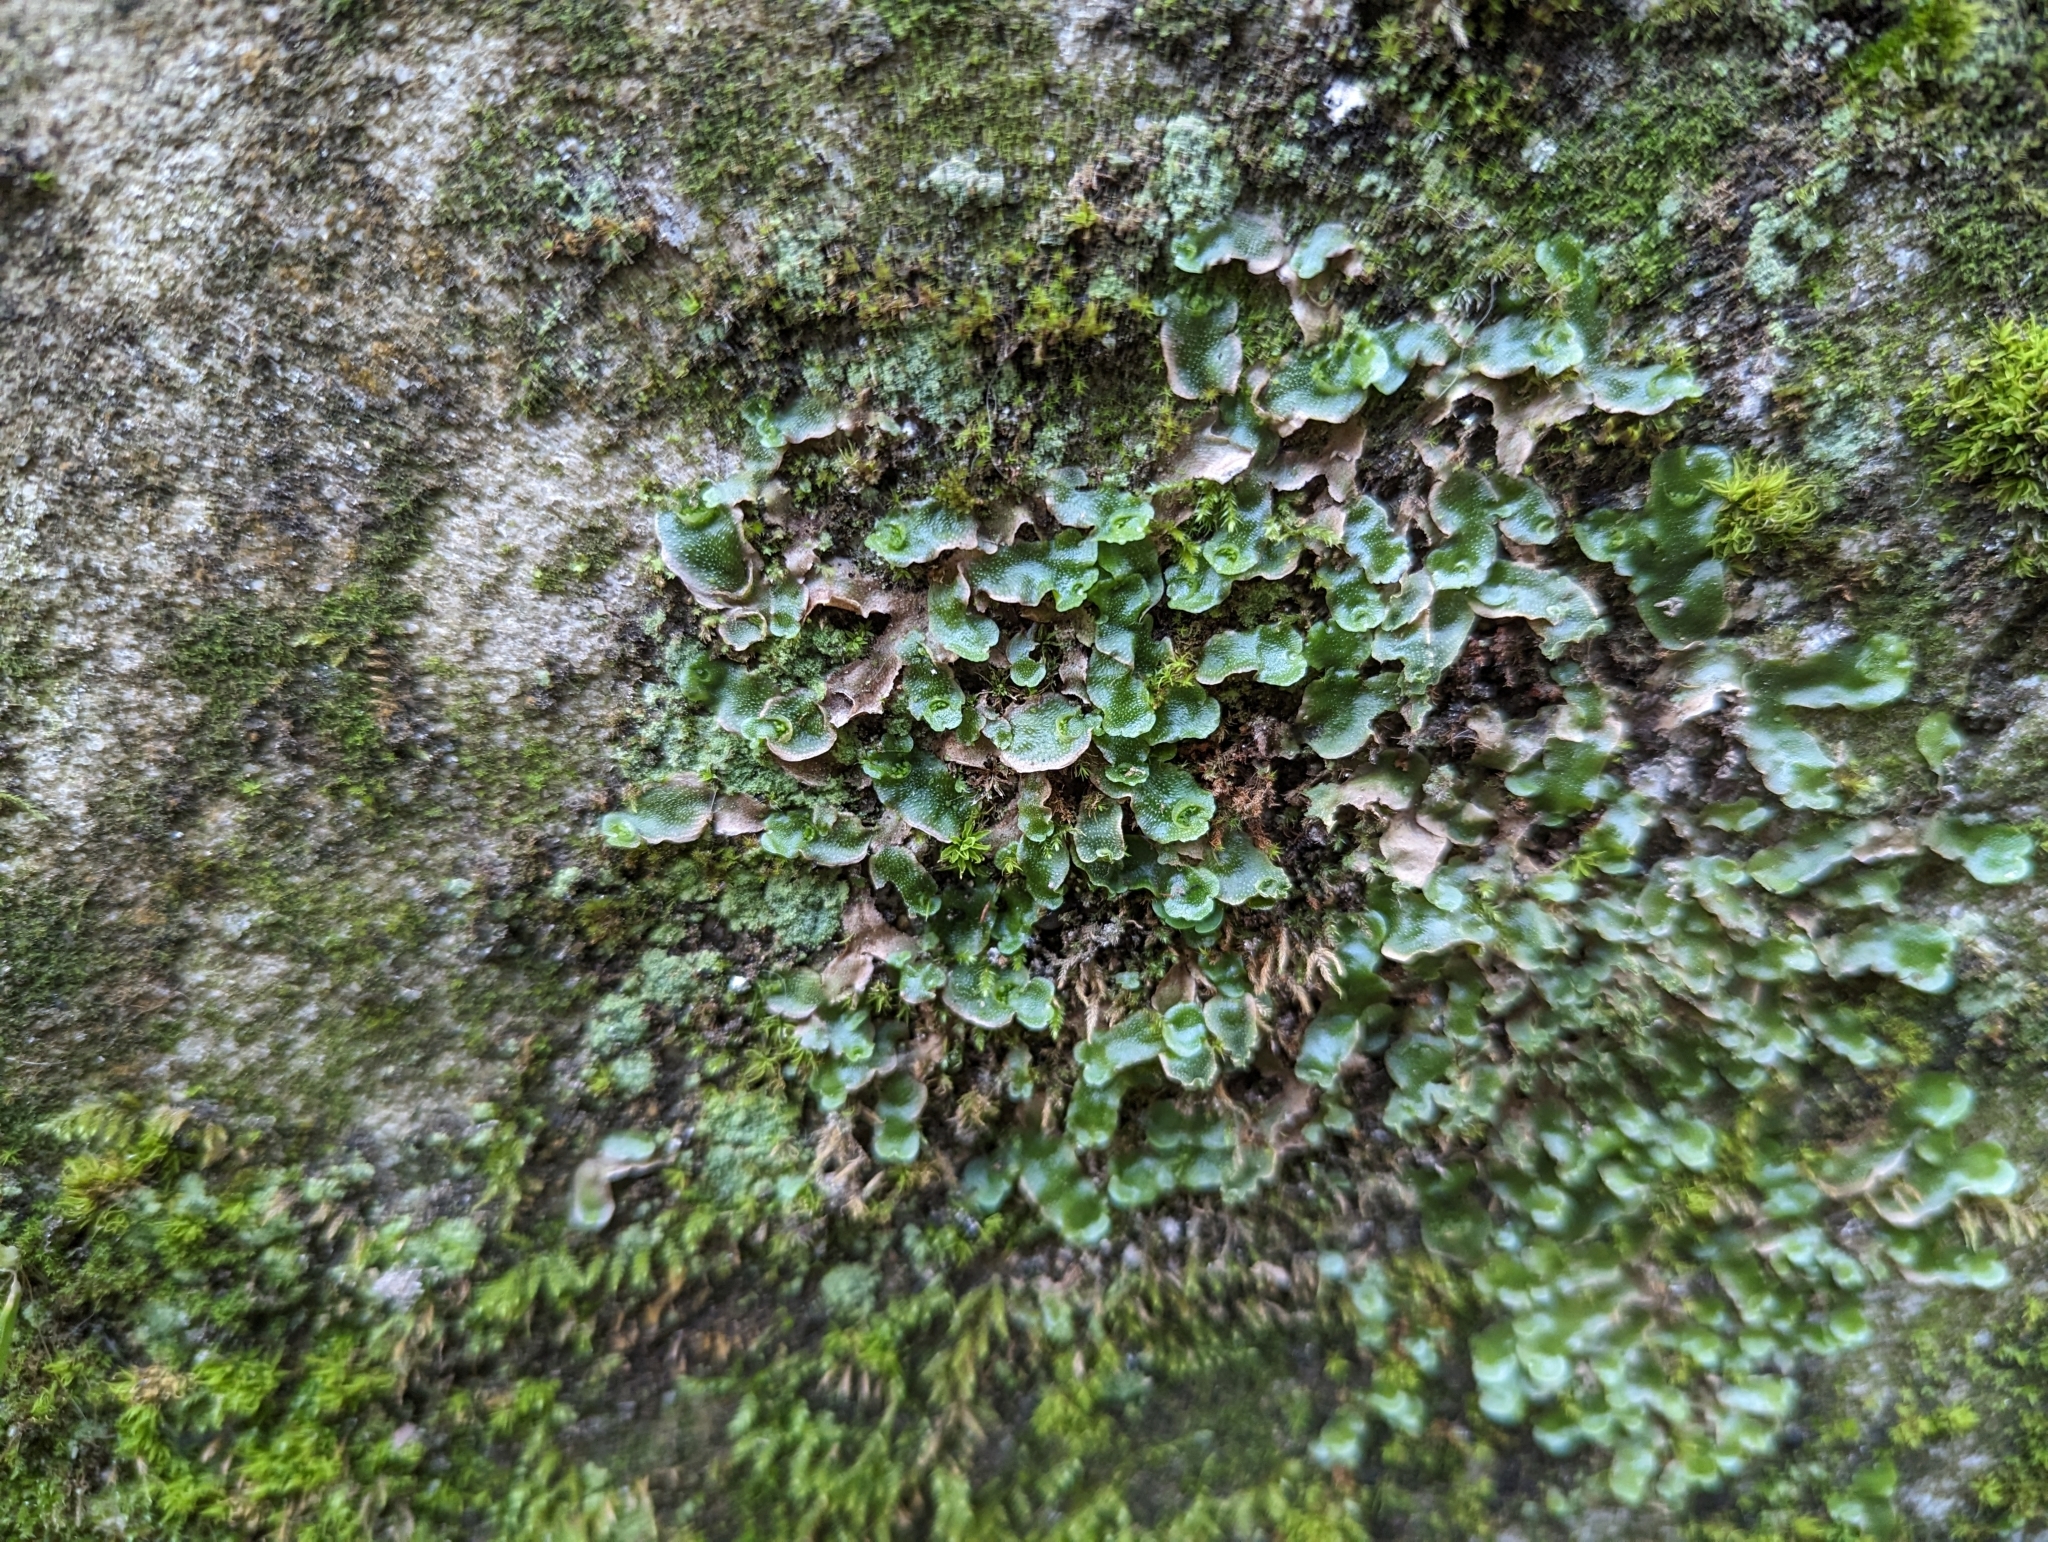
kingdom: Plantae
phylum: Marchantiophyta
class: Marchantiopsida
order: Lunulariales
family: Lunulariaceae
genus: Lunularia
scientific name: Lunularia cruciata
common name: Crescent-cup liverwort
